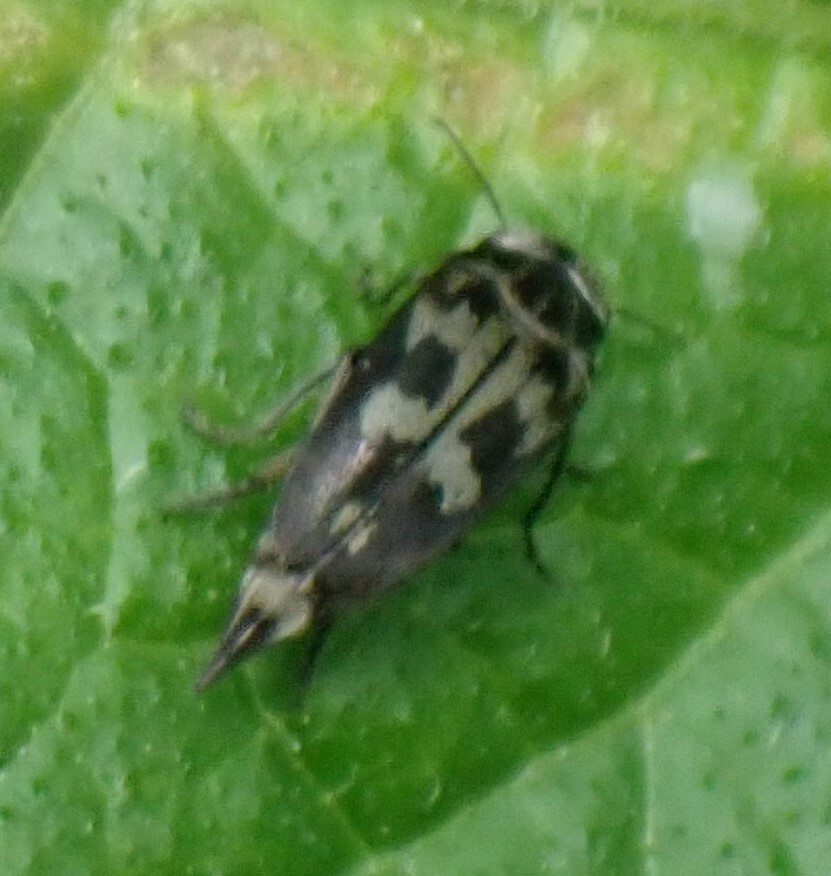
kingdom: Animalia
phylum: Arthropoda
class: Insecta
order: Coleoptera
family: Mordellidae
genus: Zeamordella
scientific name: Zeamordella monacha
